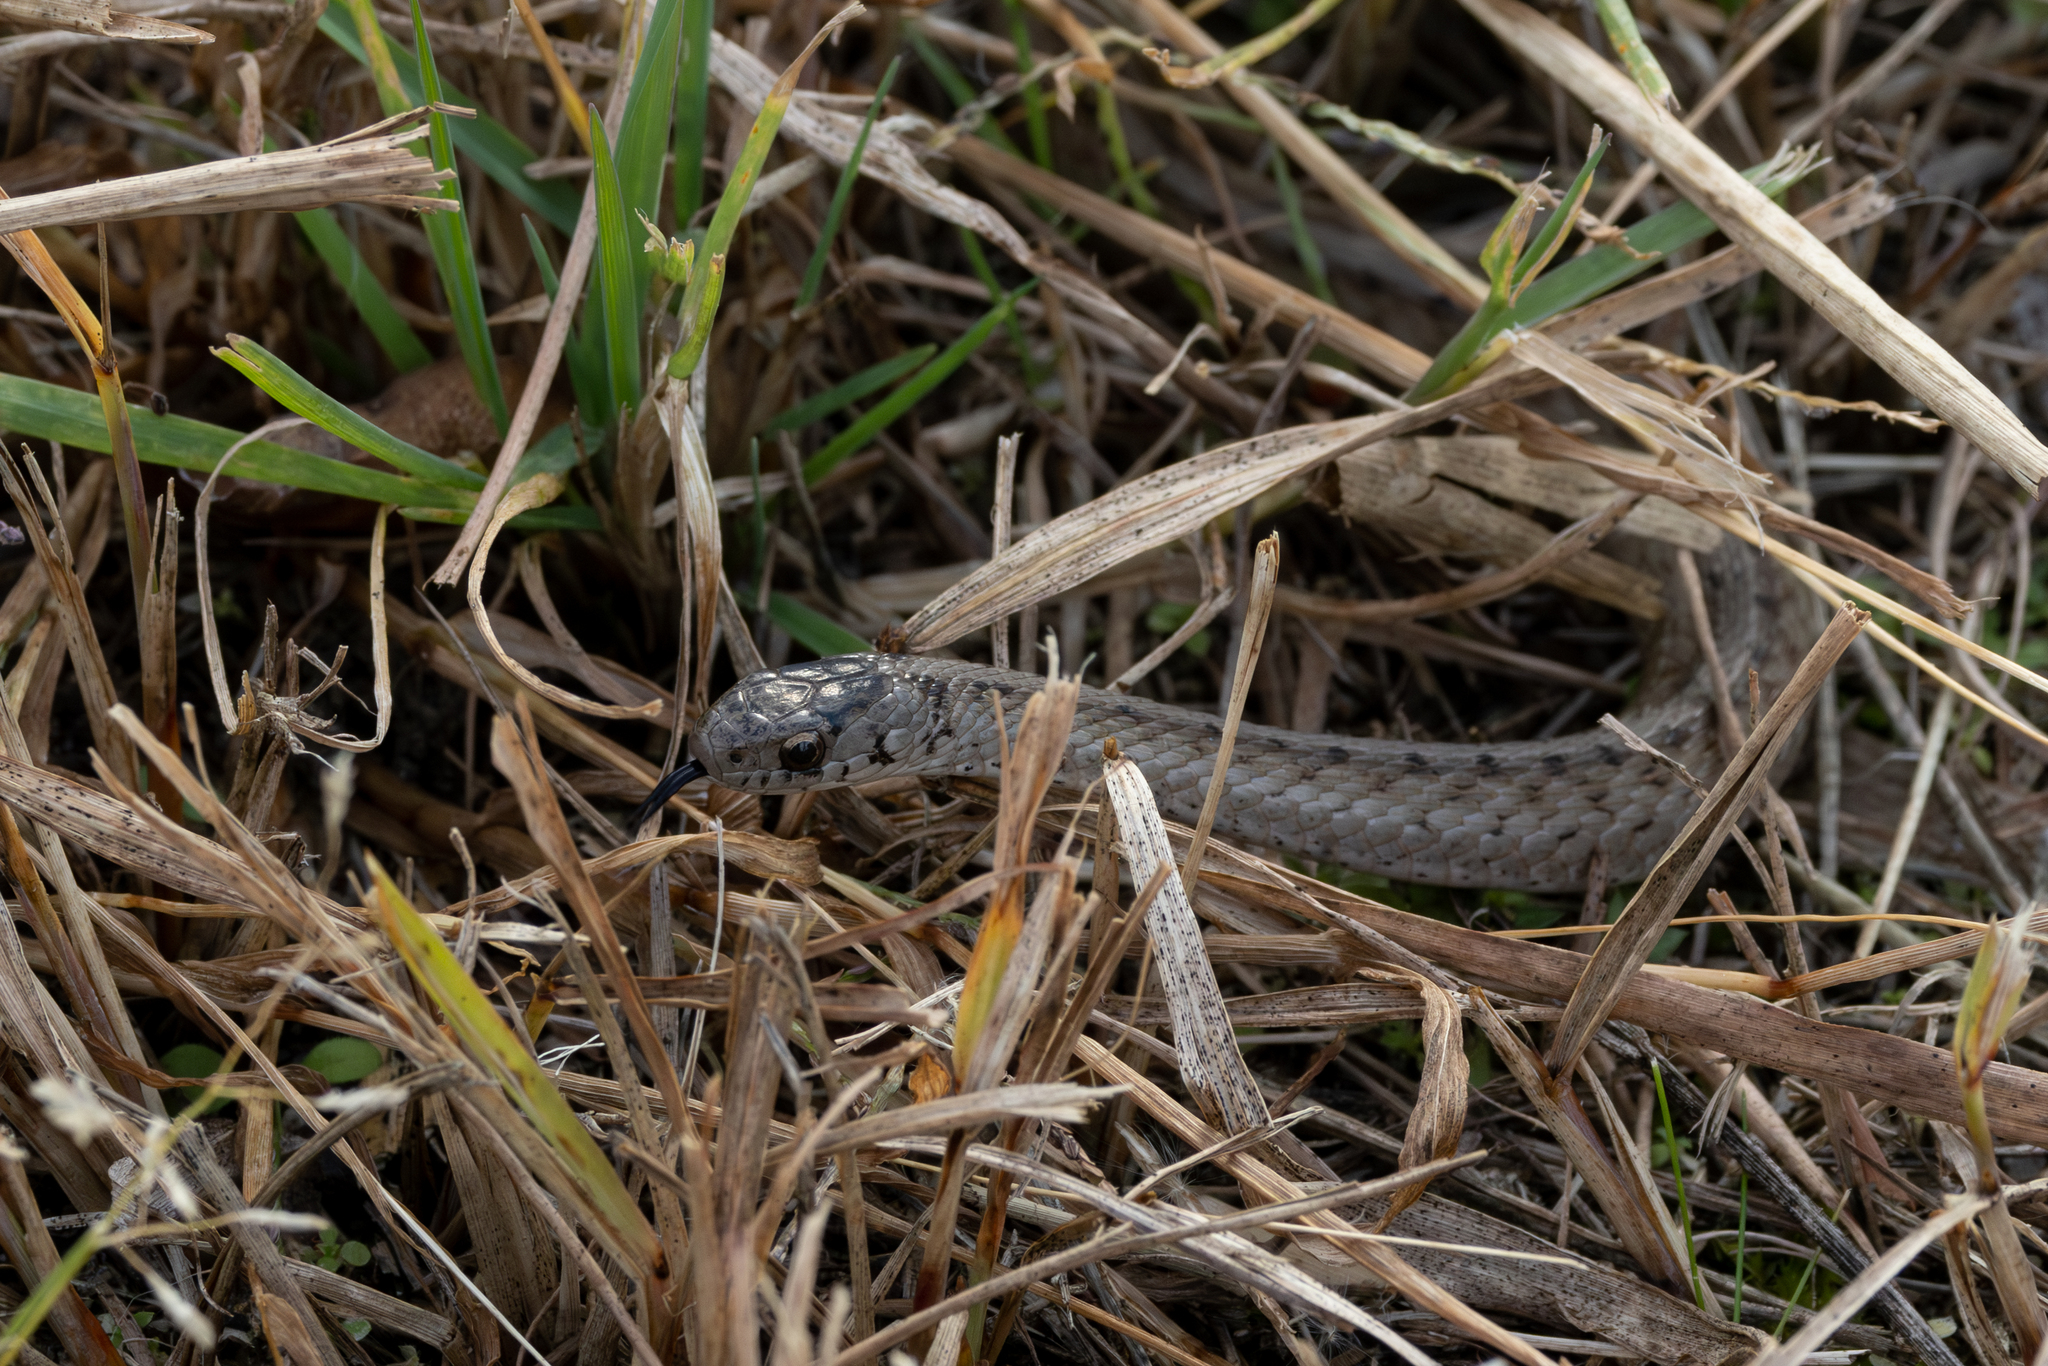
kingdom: Animalia
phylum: Chordata
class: Squamata
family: Colubridae
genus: Storeria
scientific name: Storeria dekayi
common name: (dekay’s) brown snake
